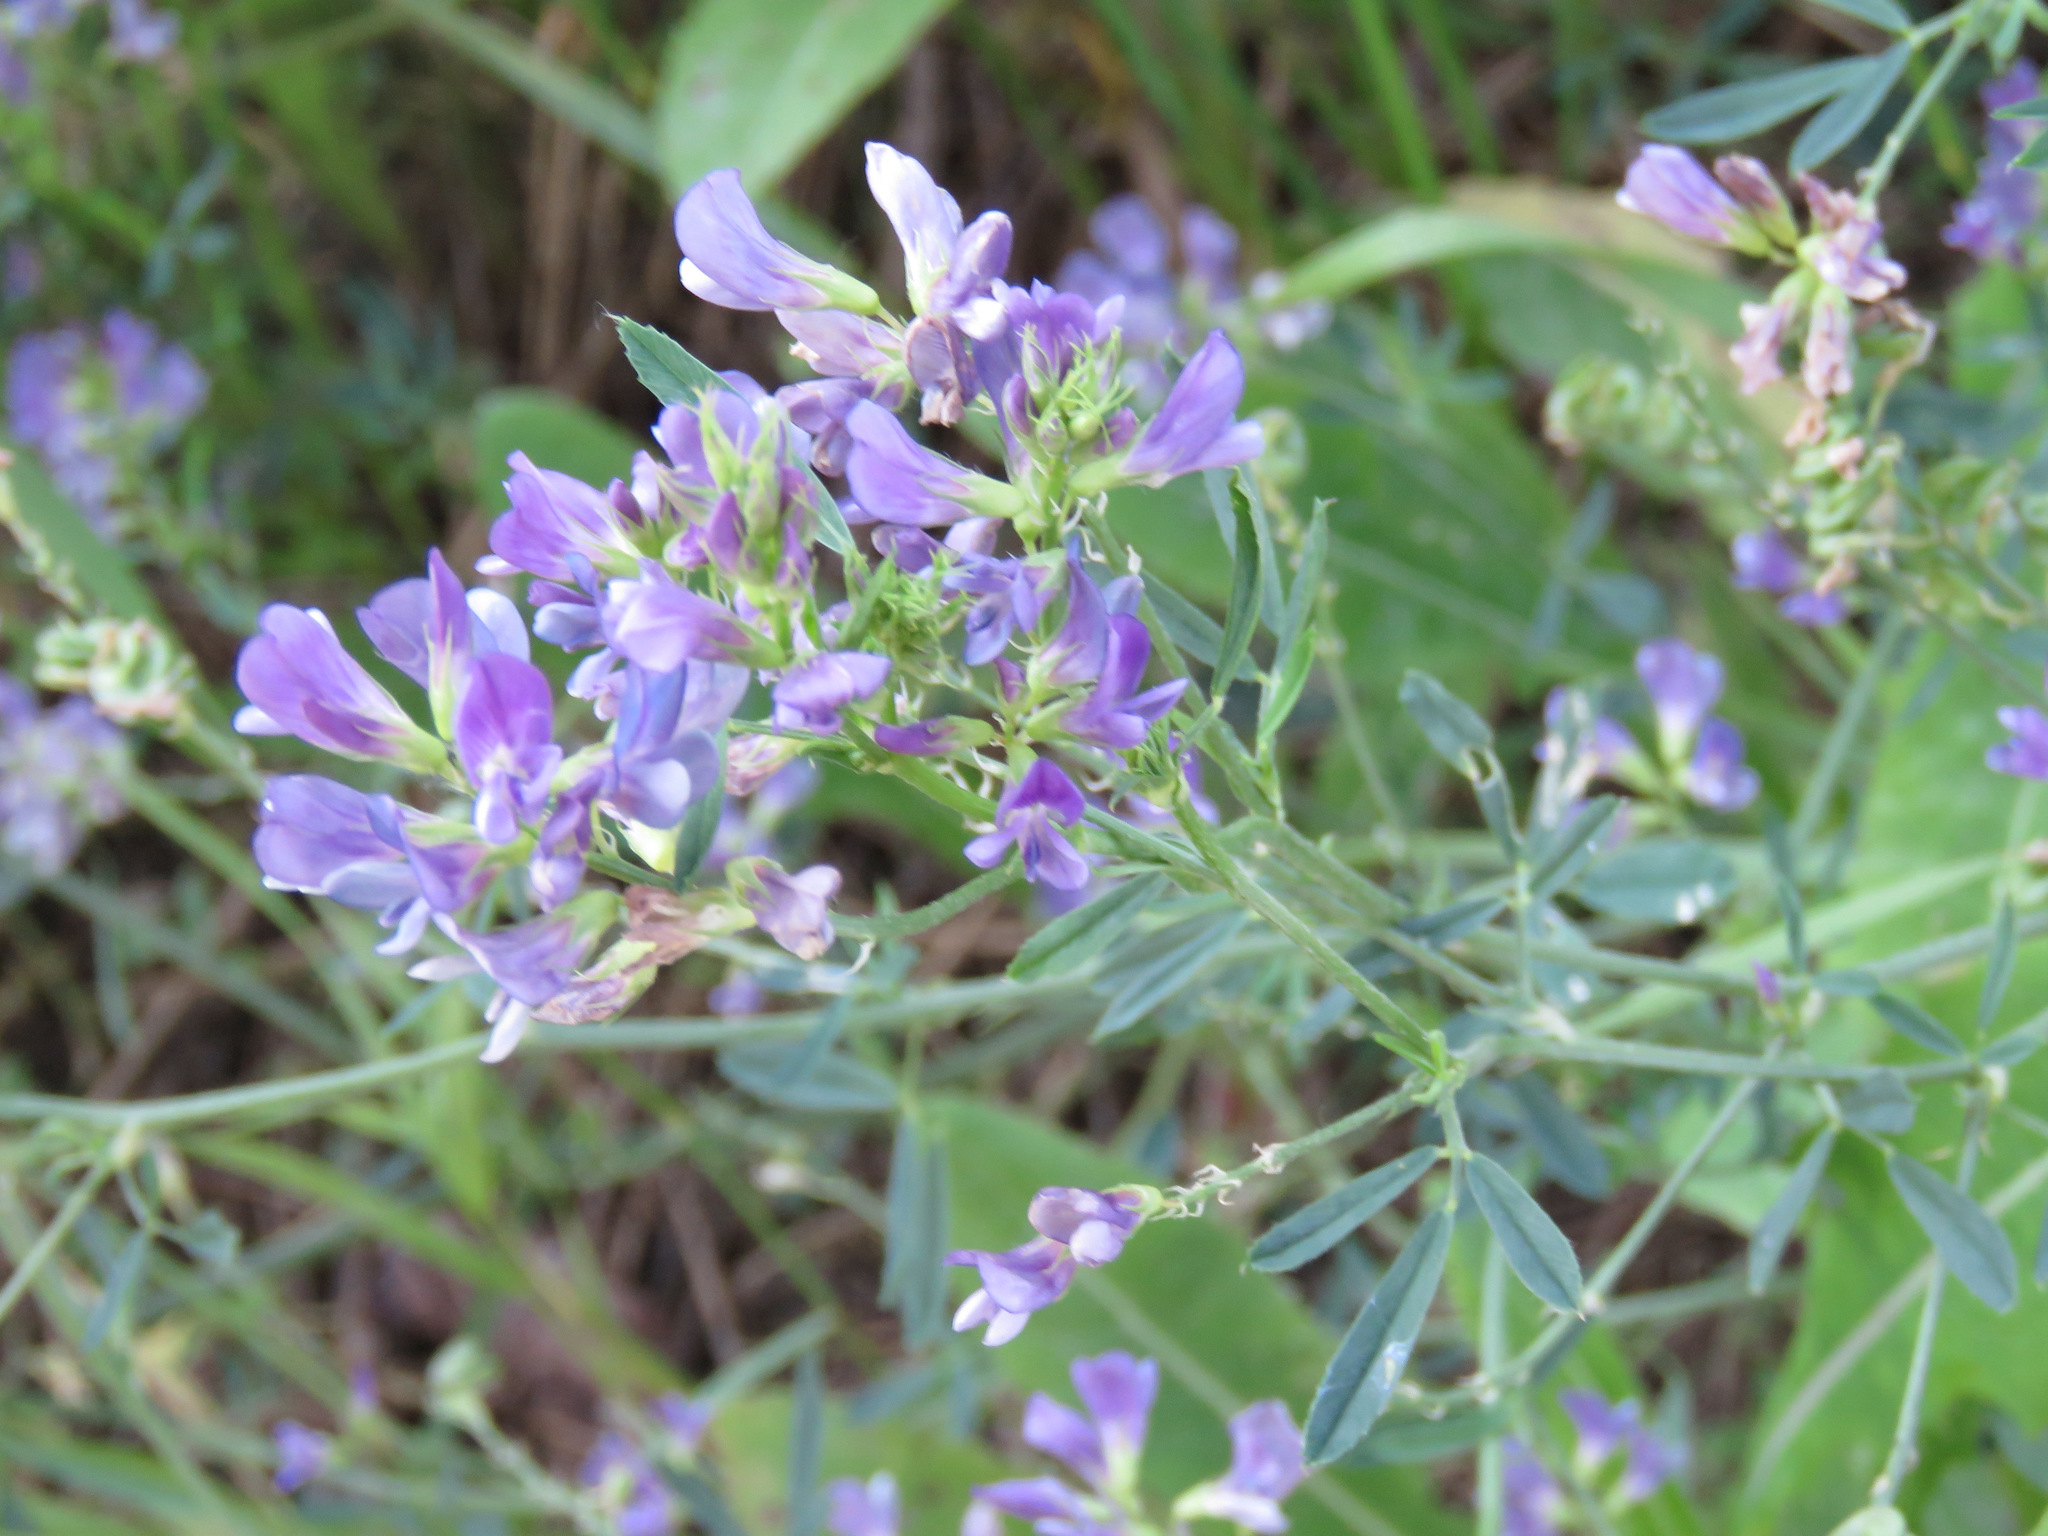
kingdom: Plantae
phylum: Tracheophyta
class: Magnoliopsida
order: Fabales
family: Fabaceae
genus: Medicago
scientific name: Medicago sativa
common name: Alfalfa
